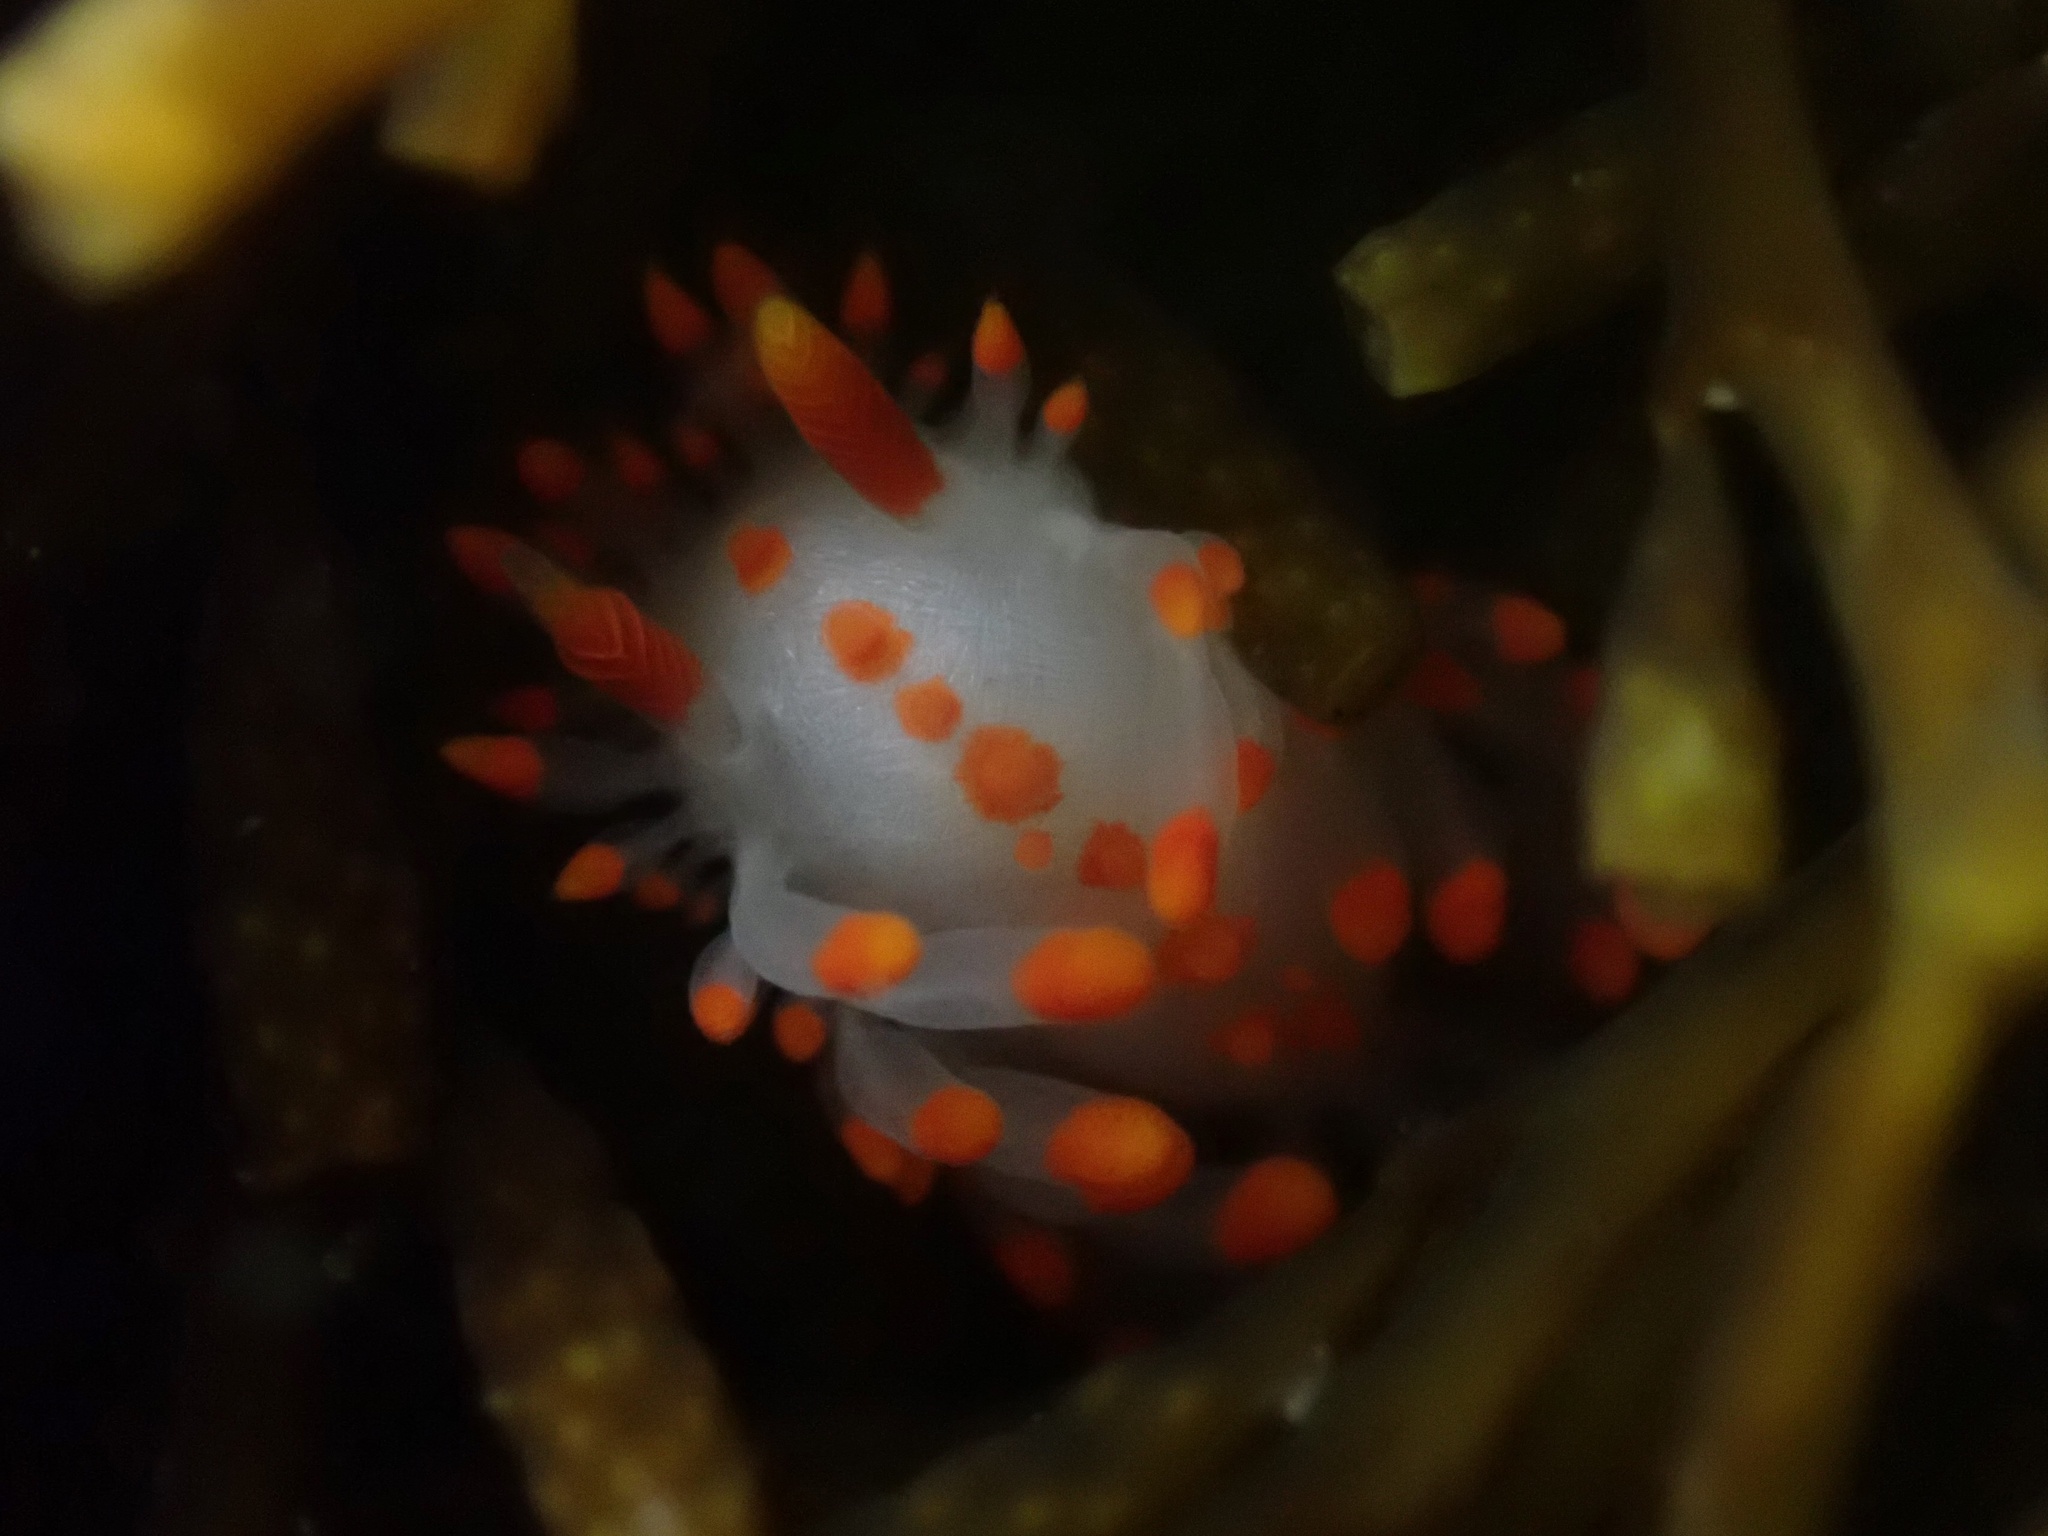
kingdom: Animalia
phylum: Mollusca
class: Gastropoda
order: Nudibranchia
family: Polyceridae
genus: Limacia
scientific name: Limacia mcdonaldi
